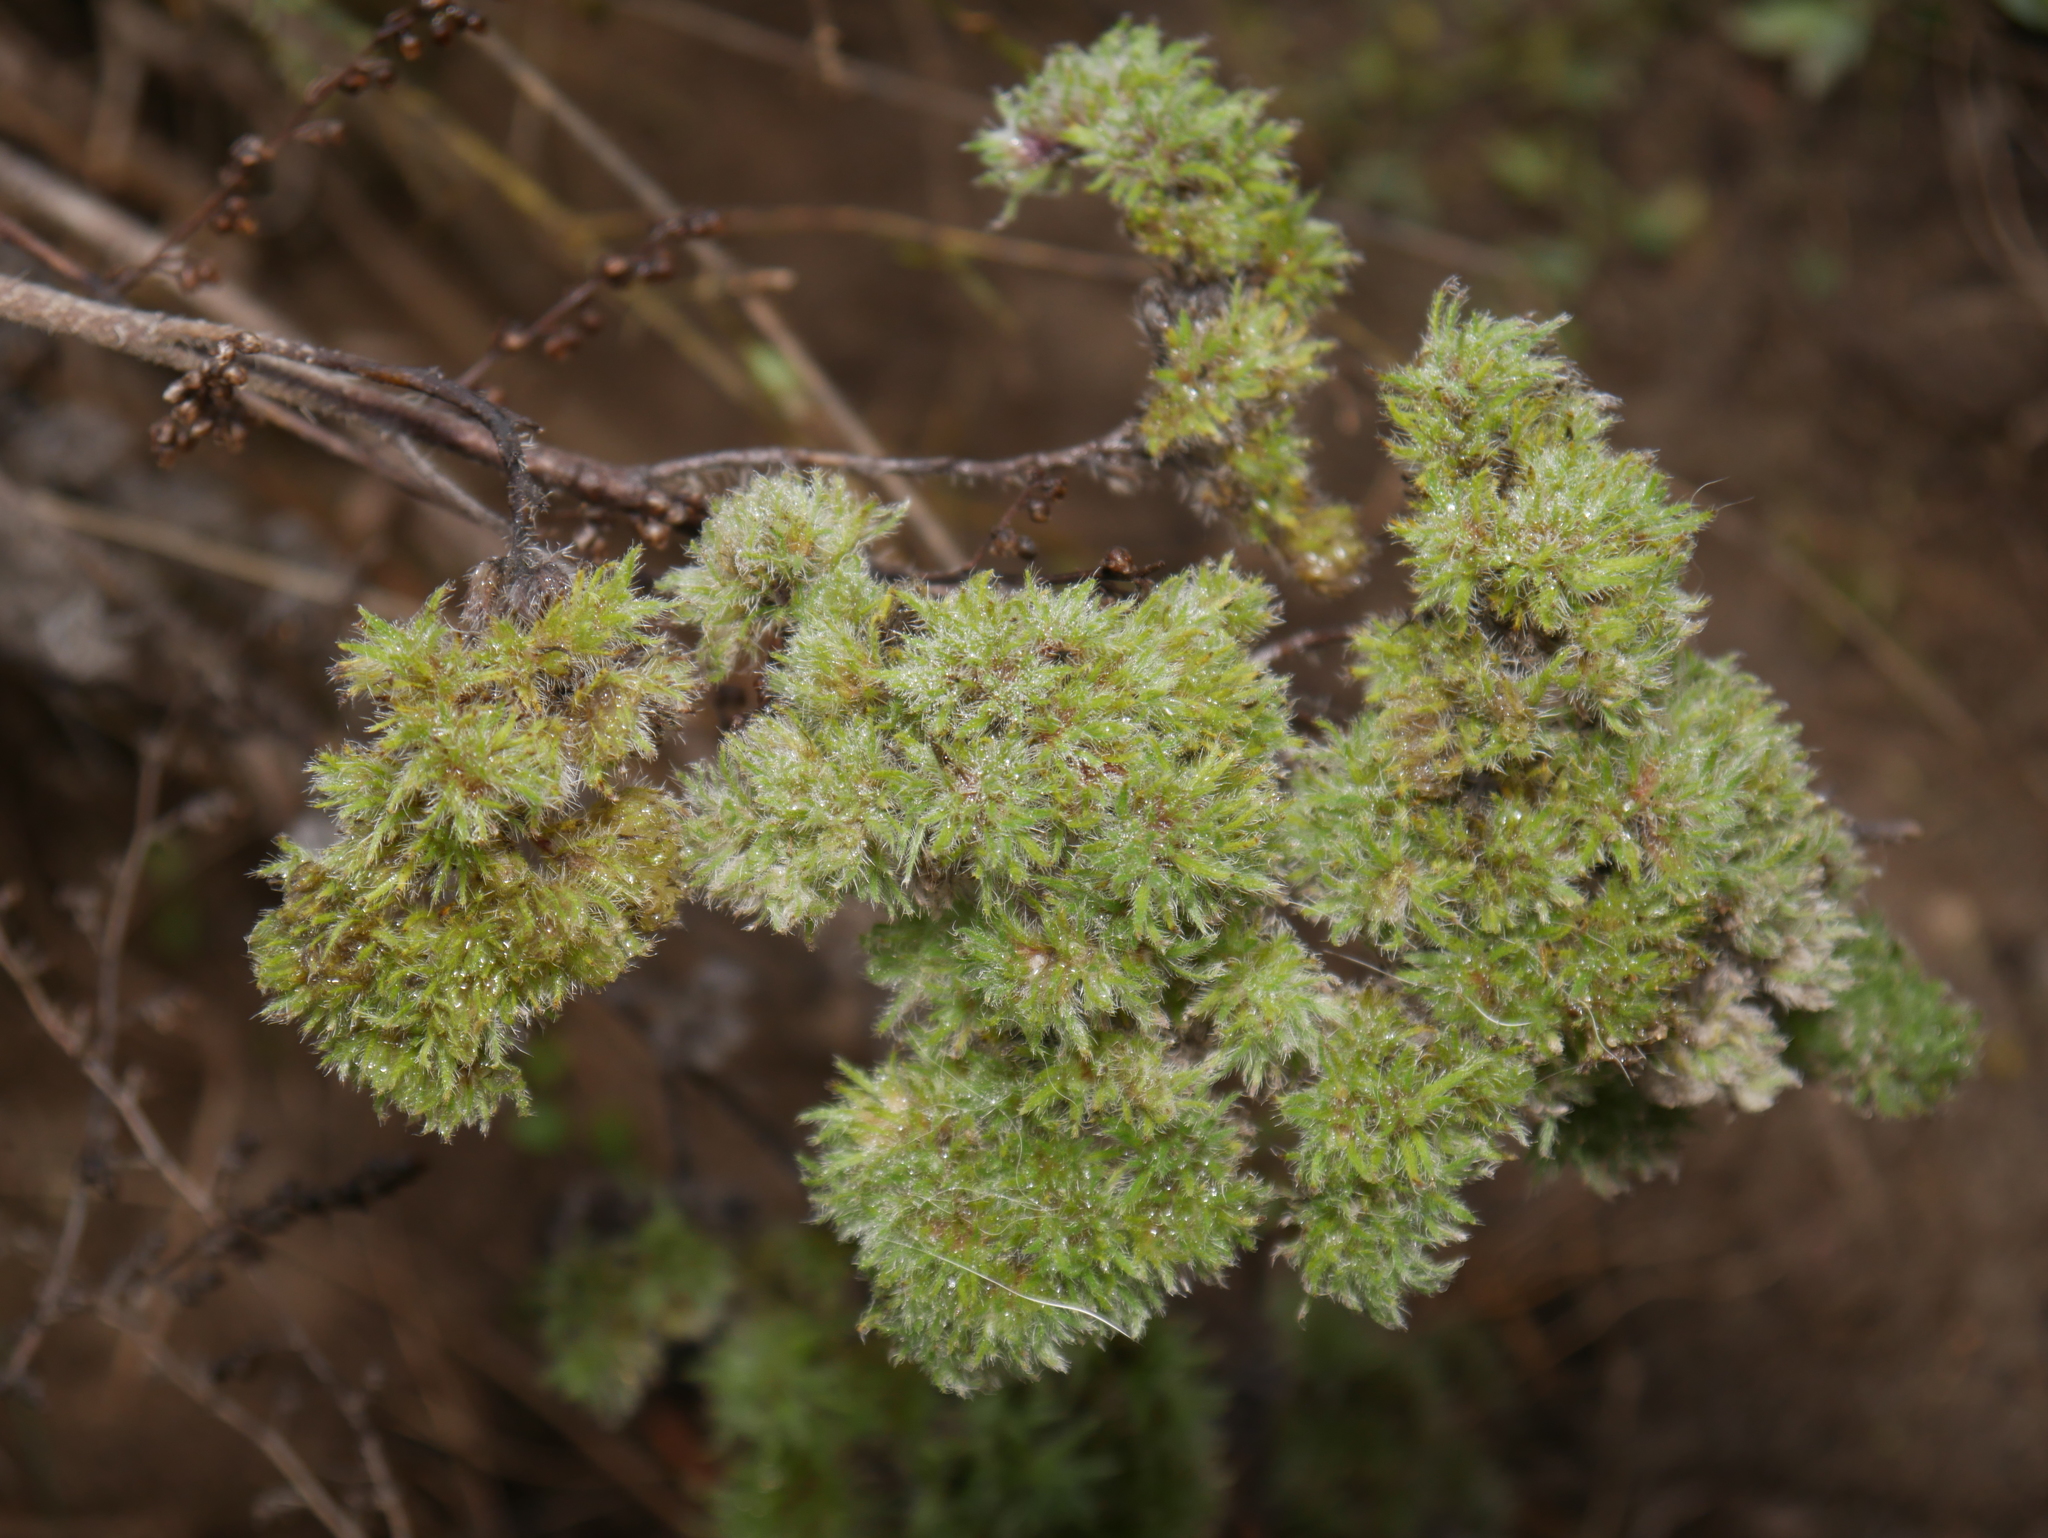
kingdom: Animalia
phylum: Arthropoda
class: Arachnida
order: Trombidiformes
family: Eriophyidae
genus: Aceria
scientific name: Aceria echii
